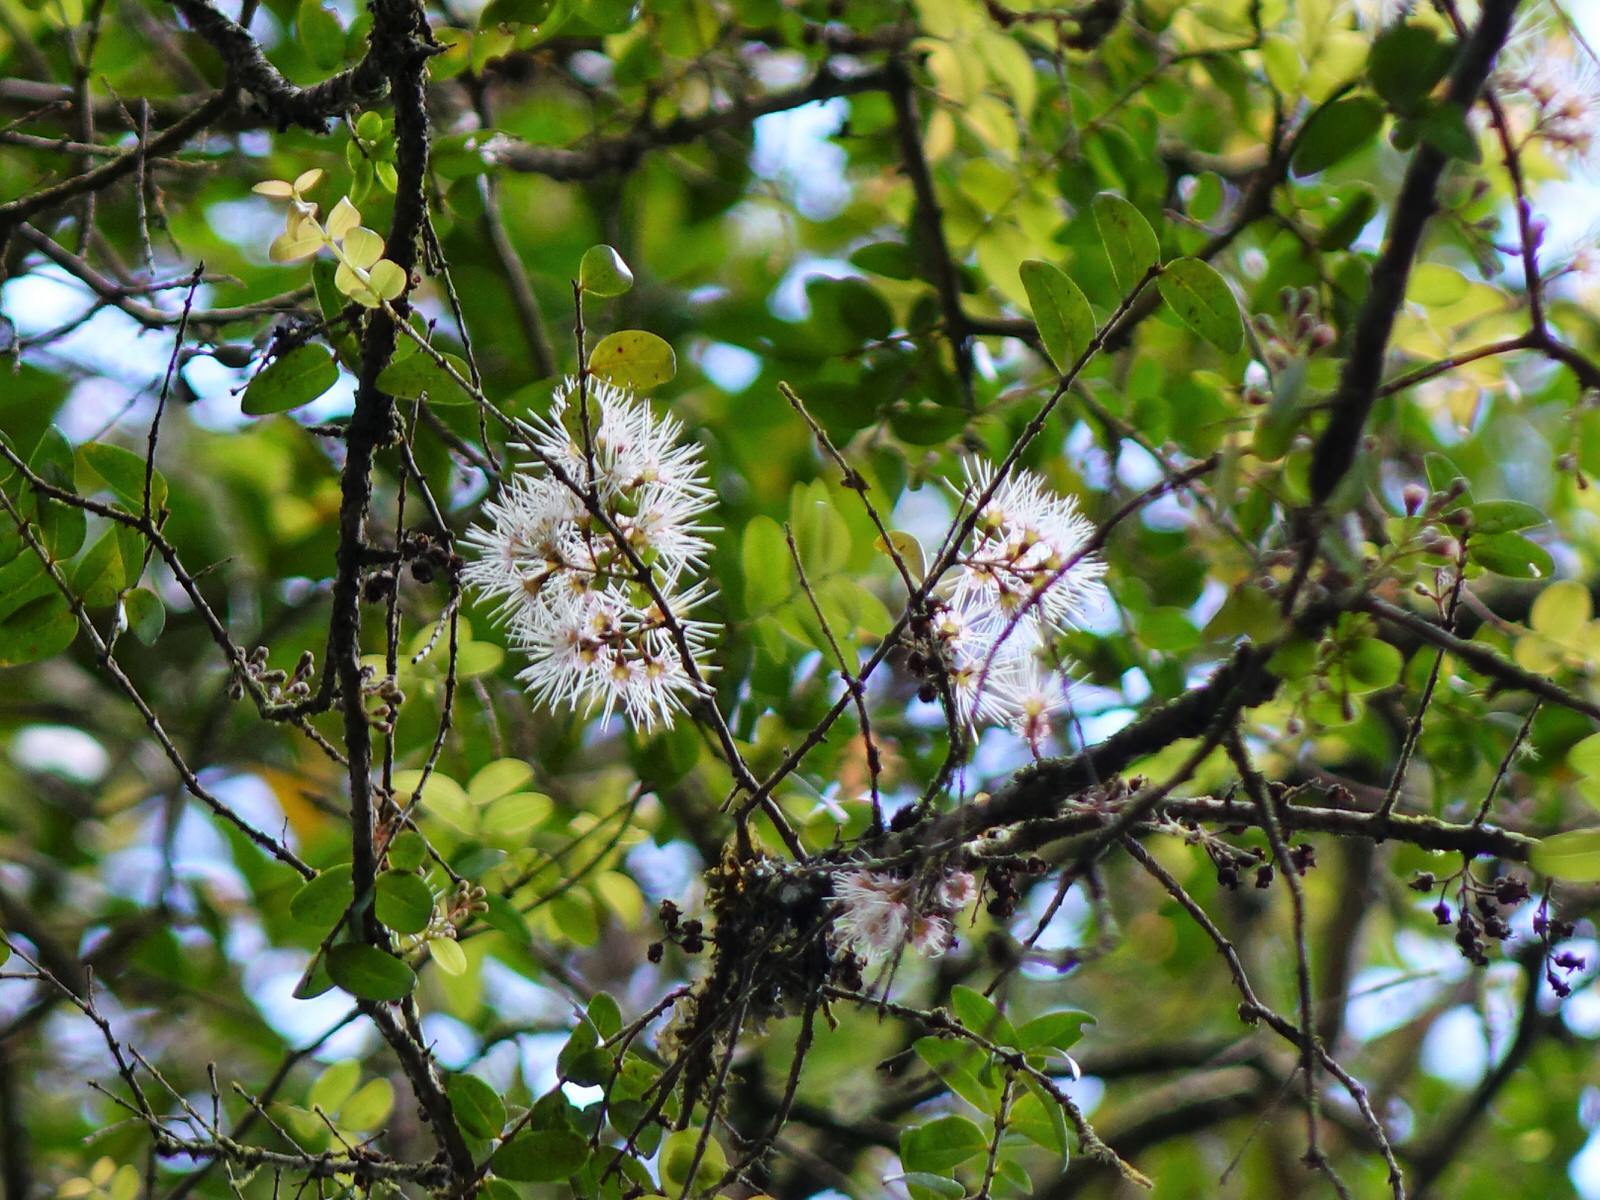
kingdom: Plantae
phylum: Tracheophyta
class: Magnoliopsida
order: Myrtales
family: Myrtaceae
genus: Metrosideros
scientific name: Metrosideros diffusa
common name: Small ratavine
